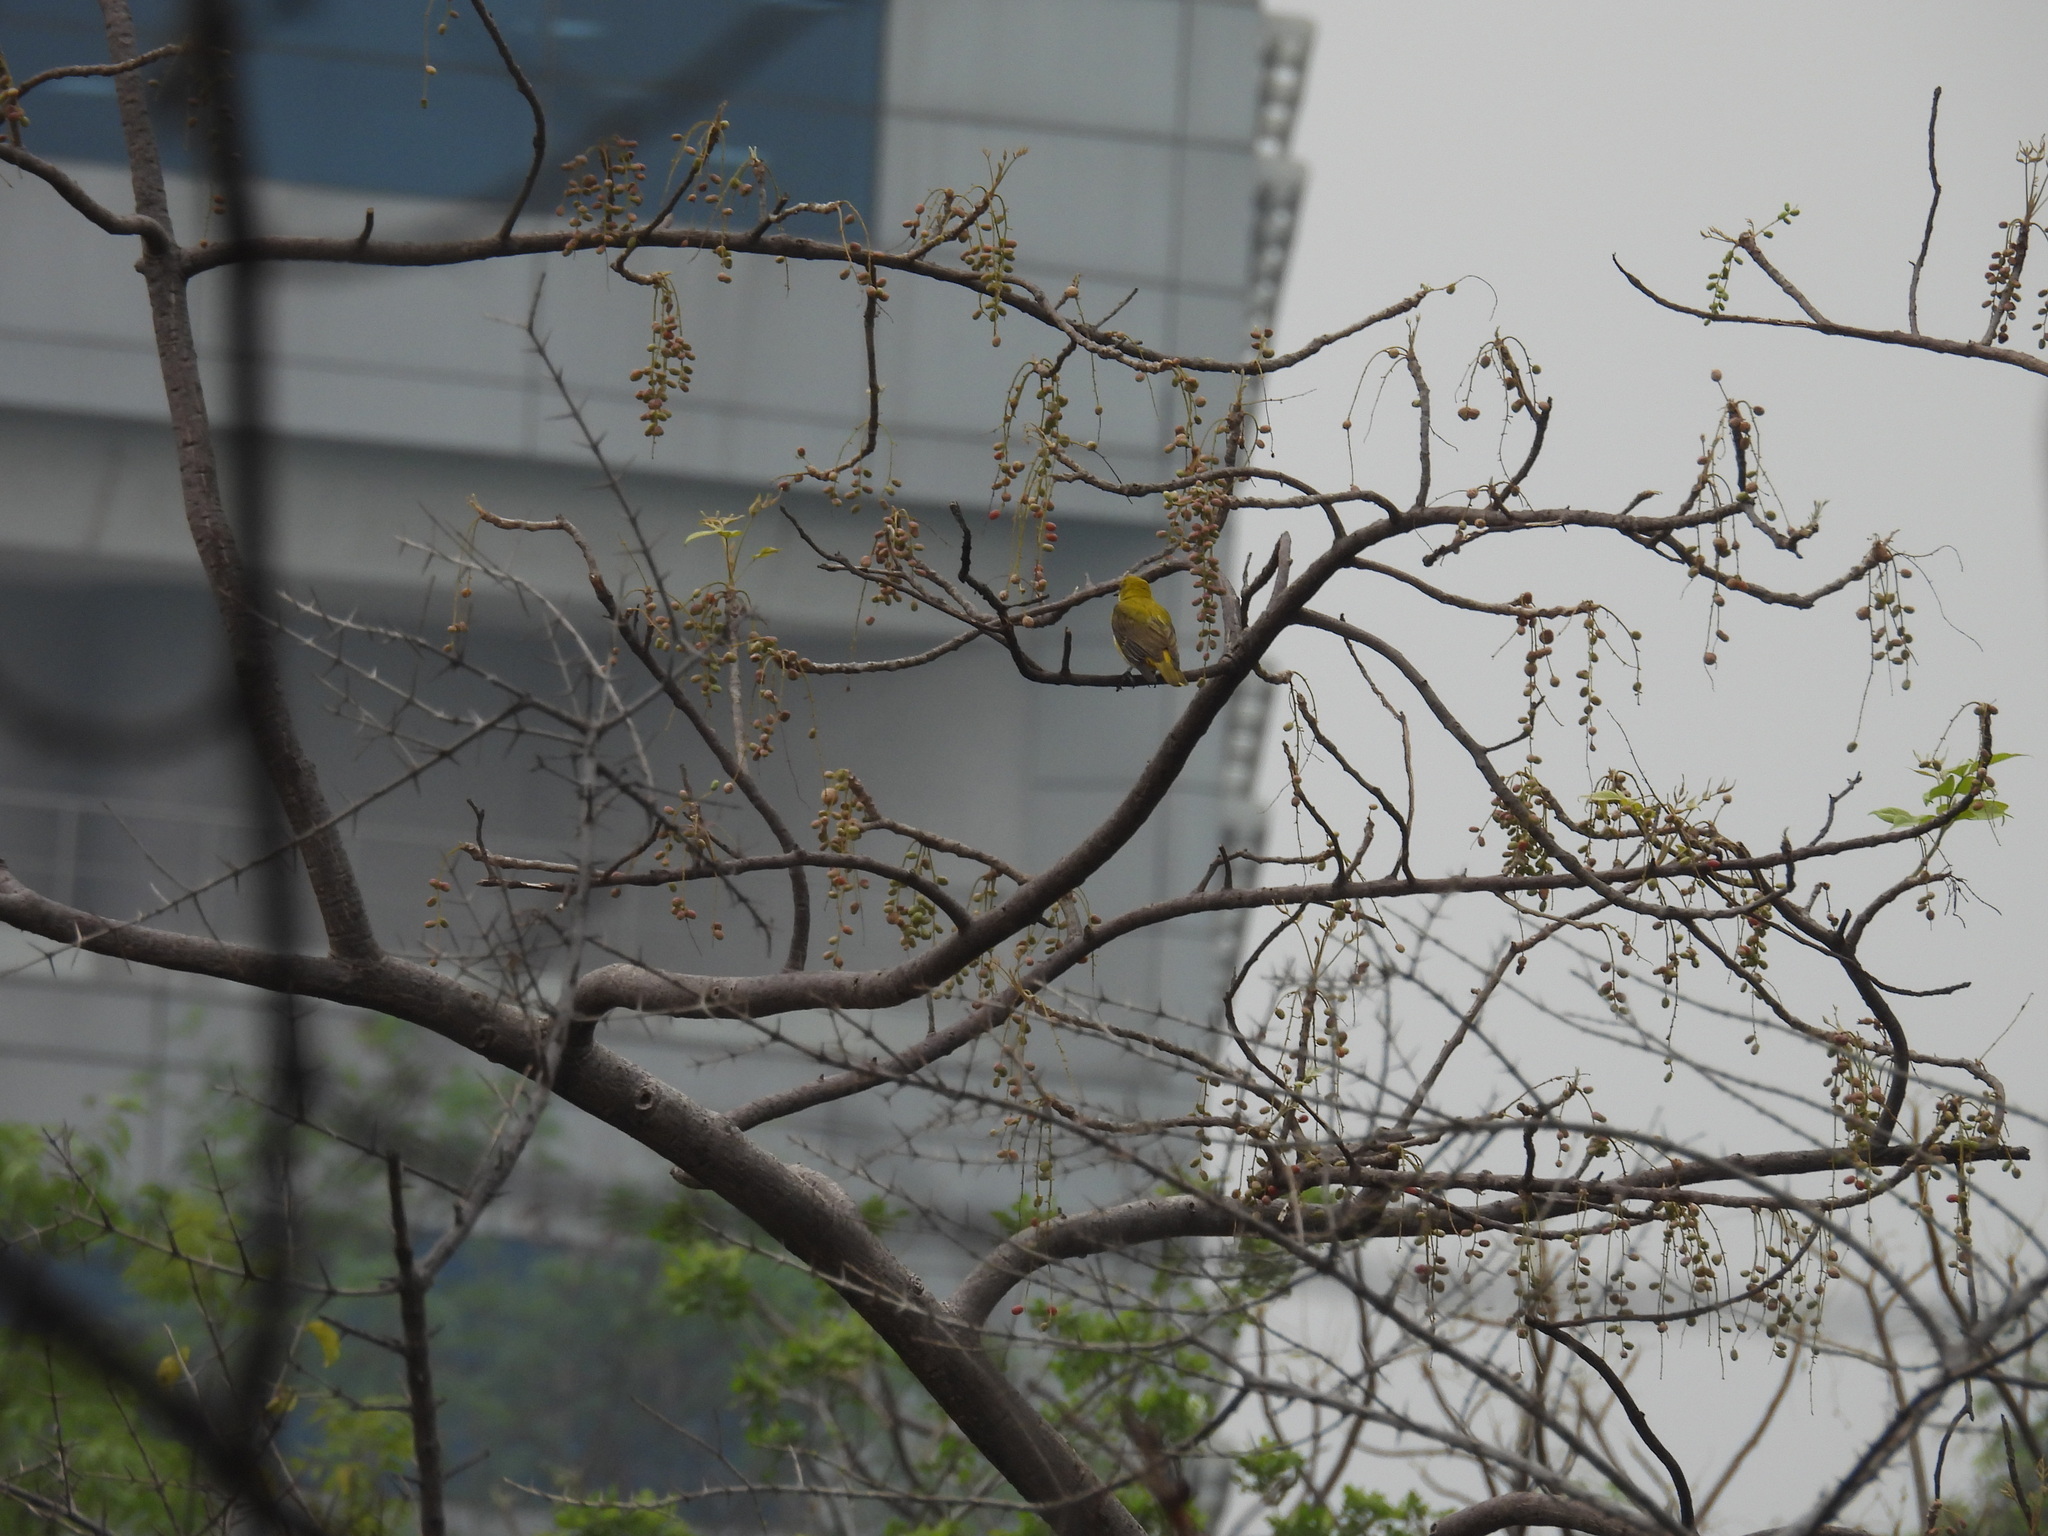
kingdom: Animalia
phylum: Chordata
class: Aves
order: Passeriformes
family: Oriolidae
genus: Oriolus
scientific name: Oriolus kundoo
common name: Indian golden oriole
